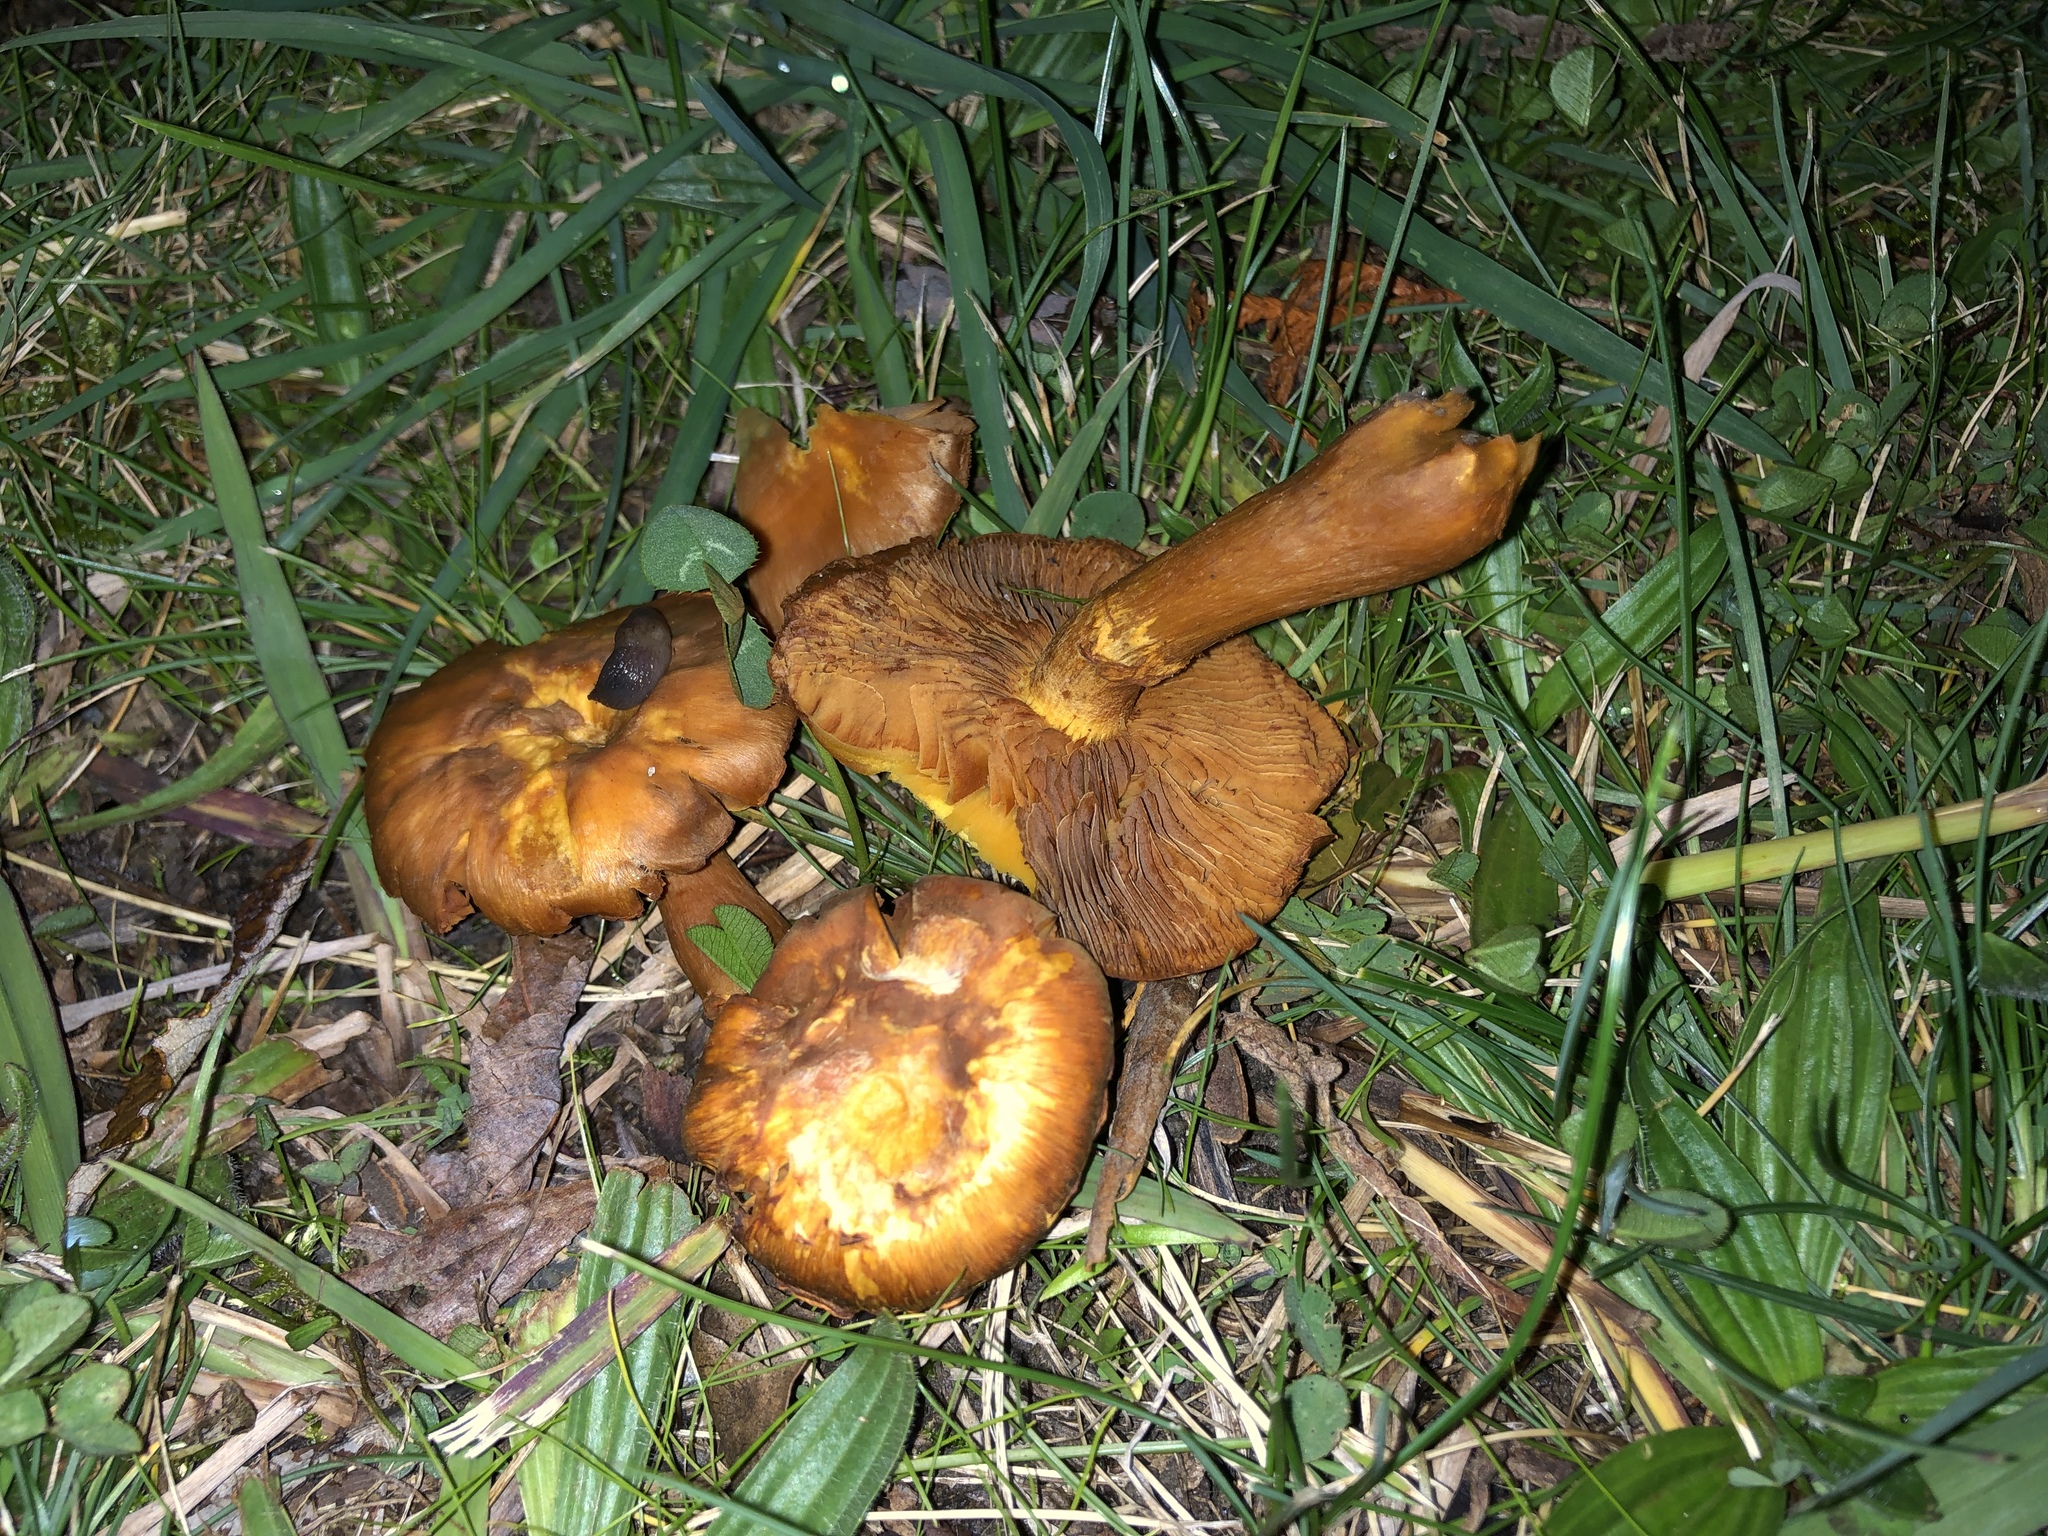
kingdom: Fungi
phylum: Basidiomycota
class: Agaricomycetes
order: Agaricales
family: Hymenogastraceae
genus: Gymnopilus
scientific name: Gymnopilus junonius
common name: Spectacular rustgill
